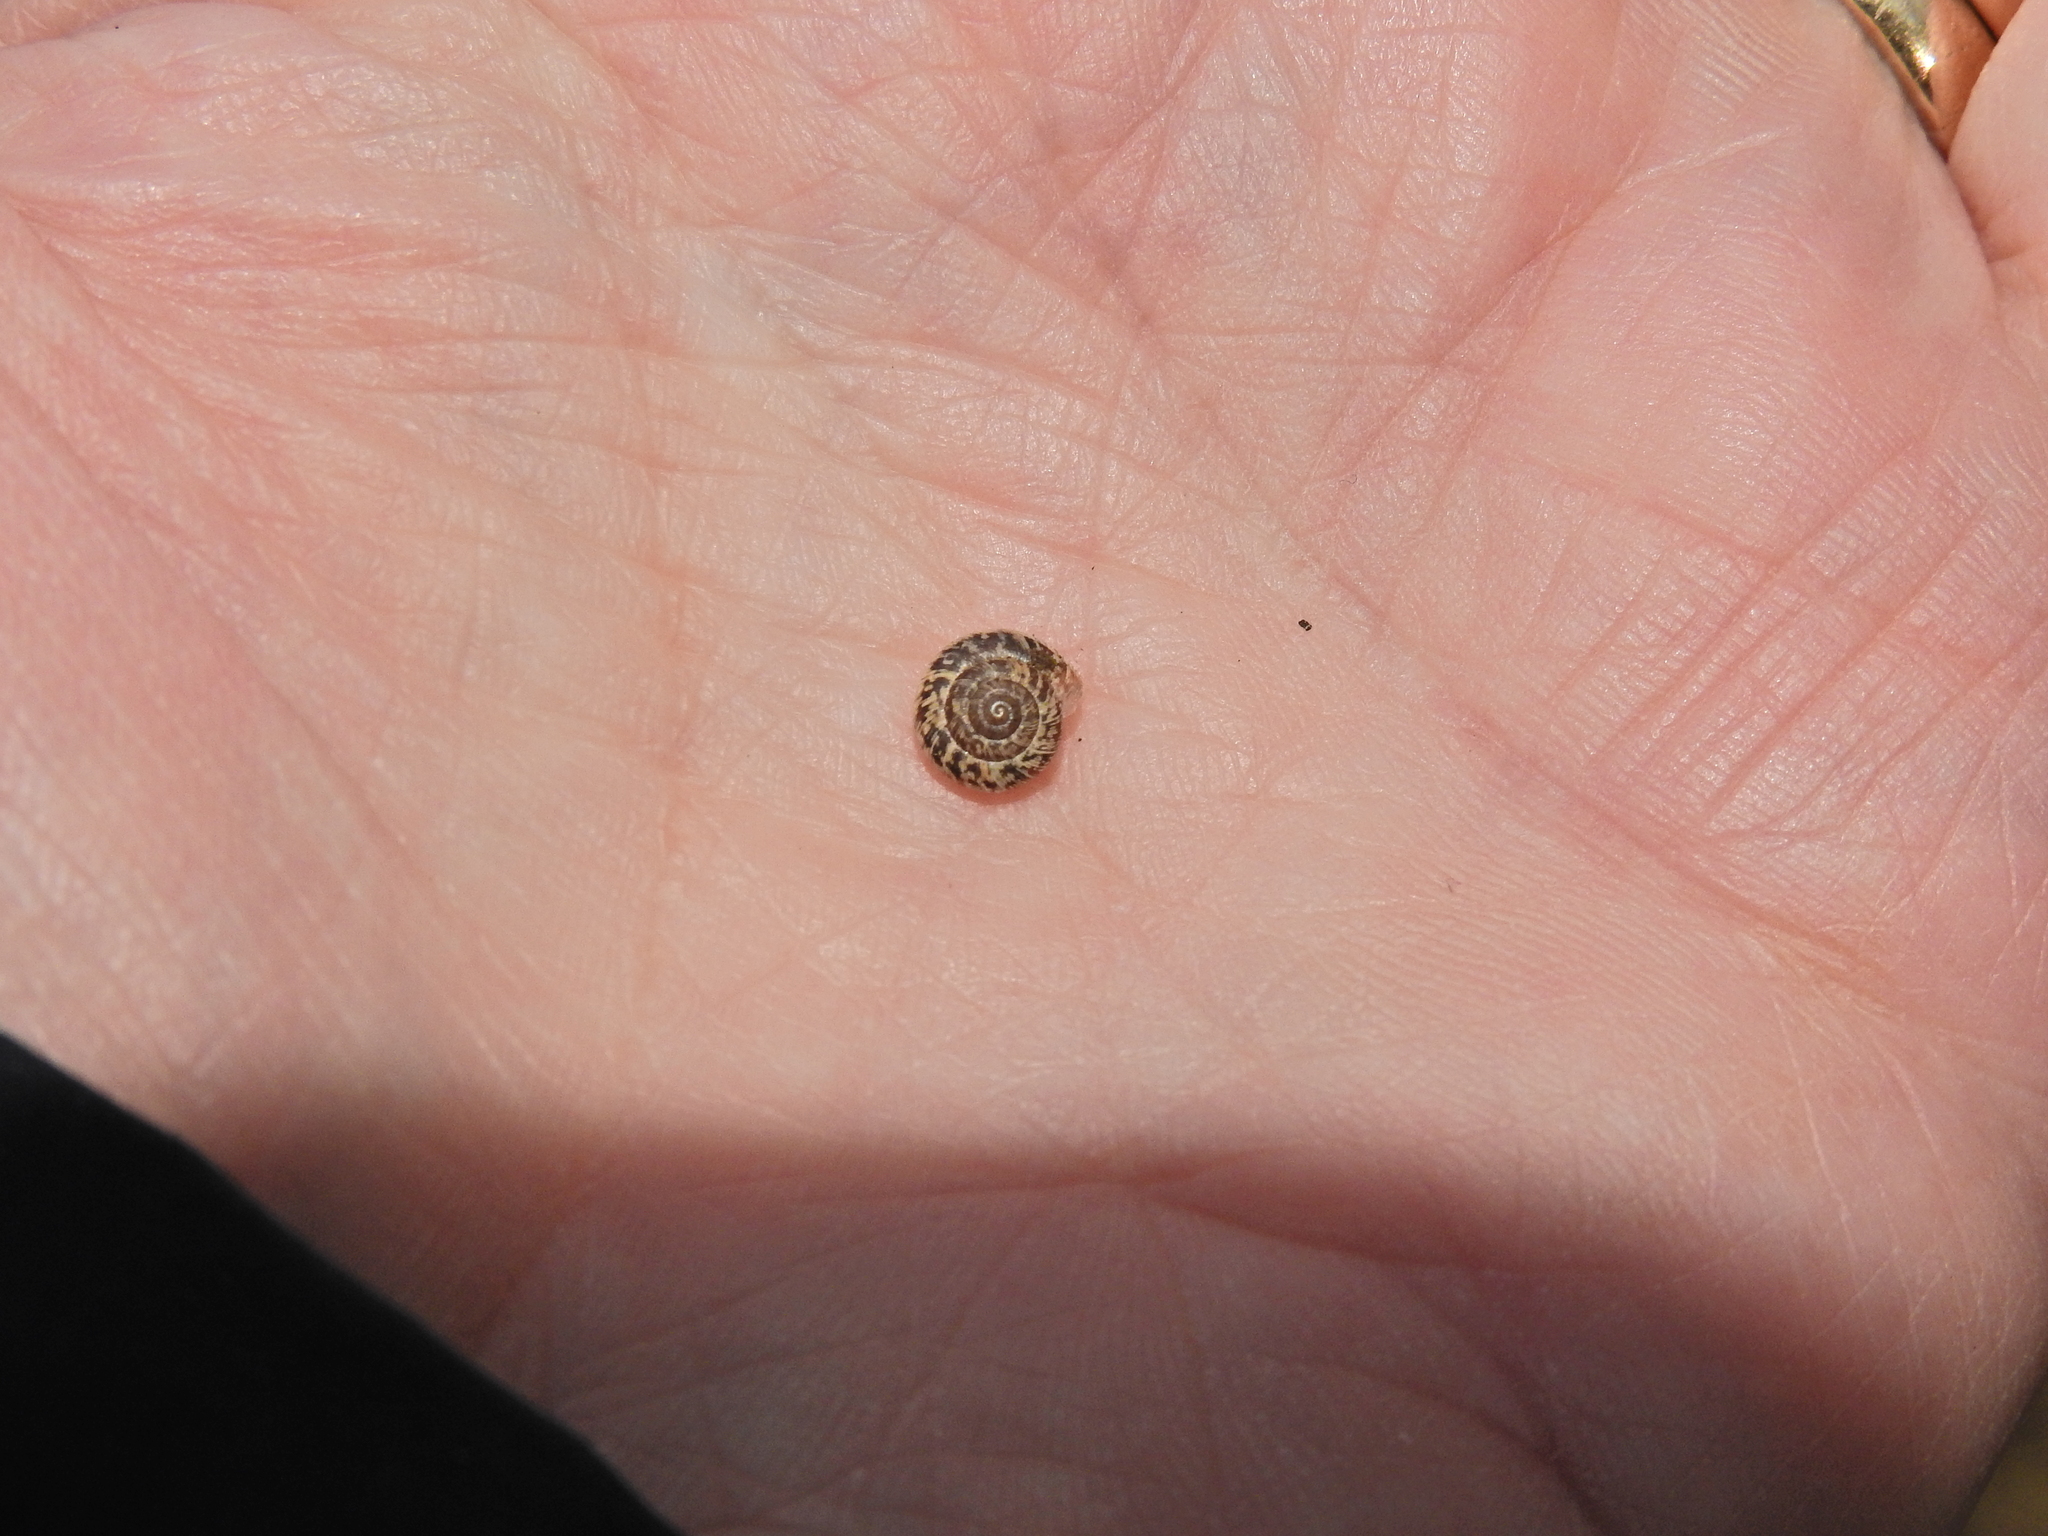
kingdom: Animalia
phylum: Mollusca
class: Gastropoda
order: Stylommatophora
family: Geomitridae
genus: Xeroplexa
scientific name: Xeroplexa intersecta
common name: Wrinkled snail
